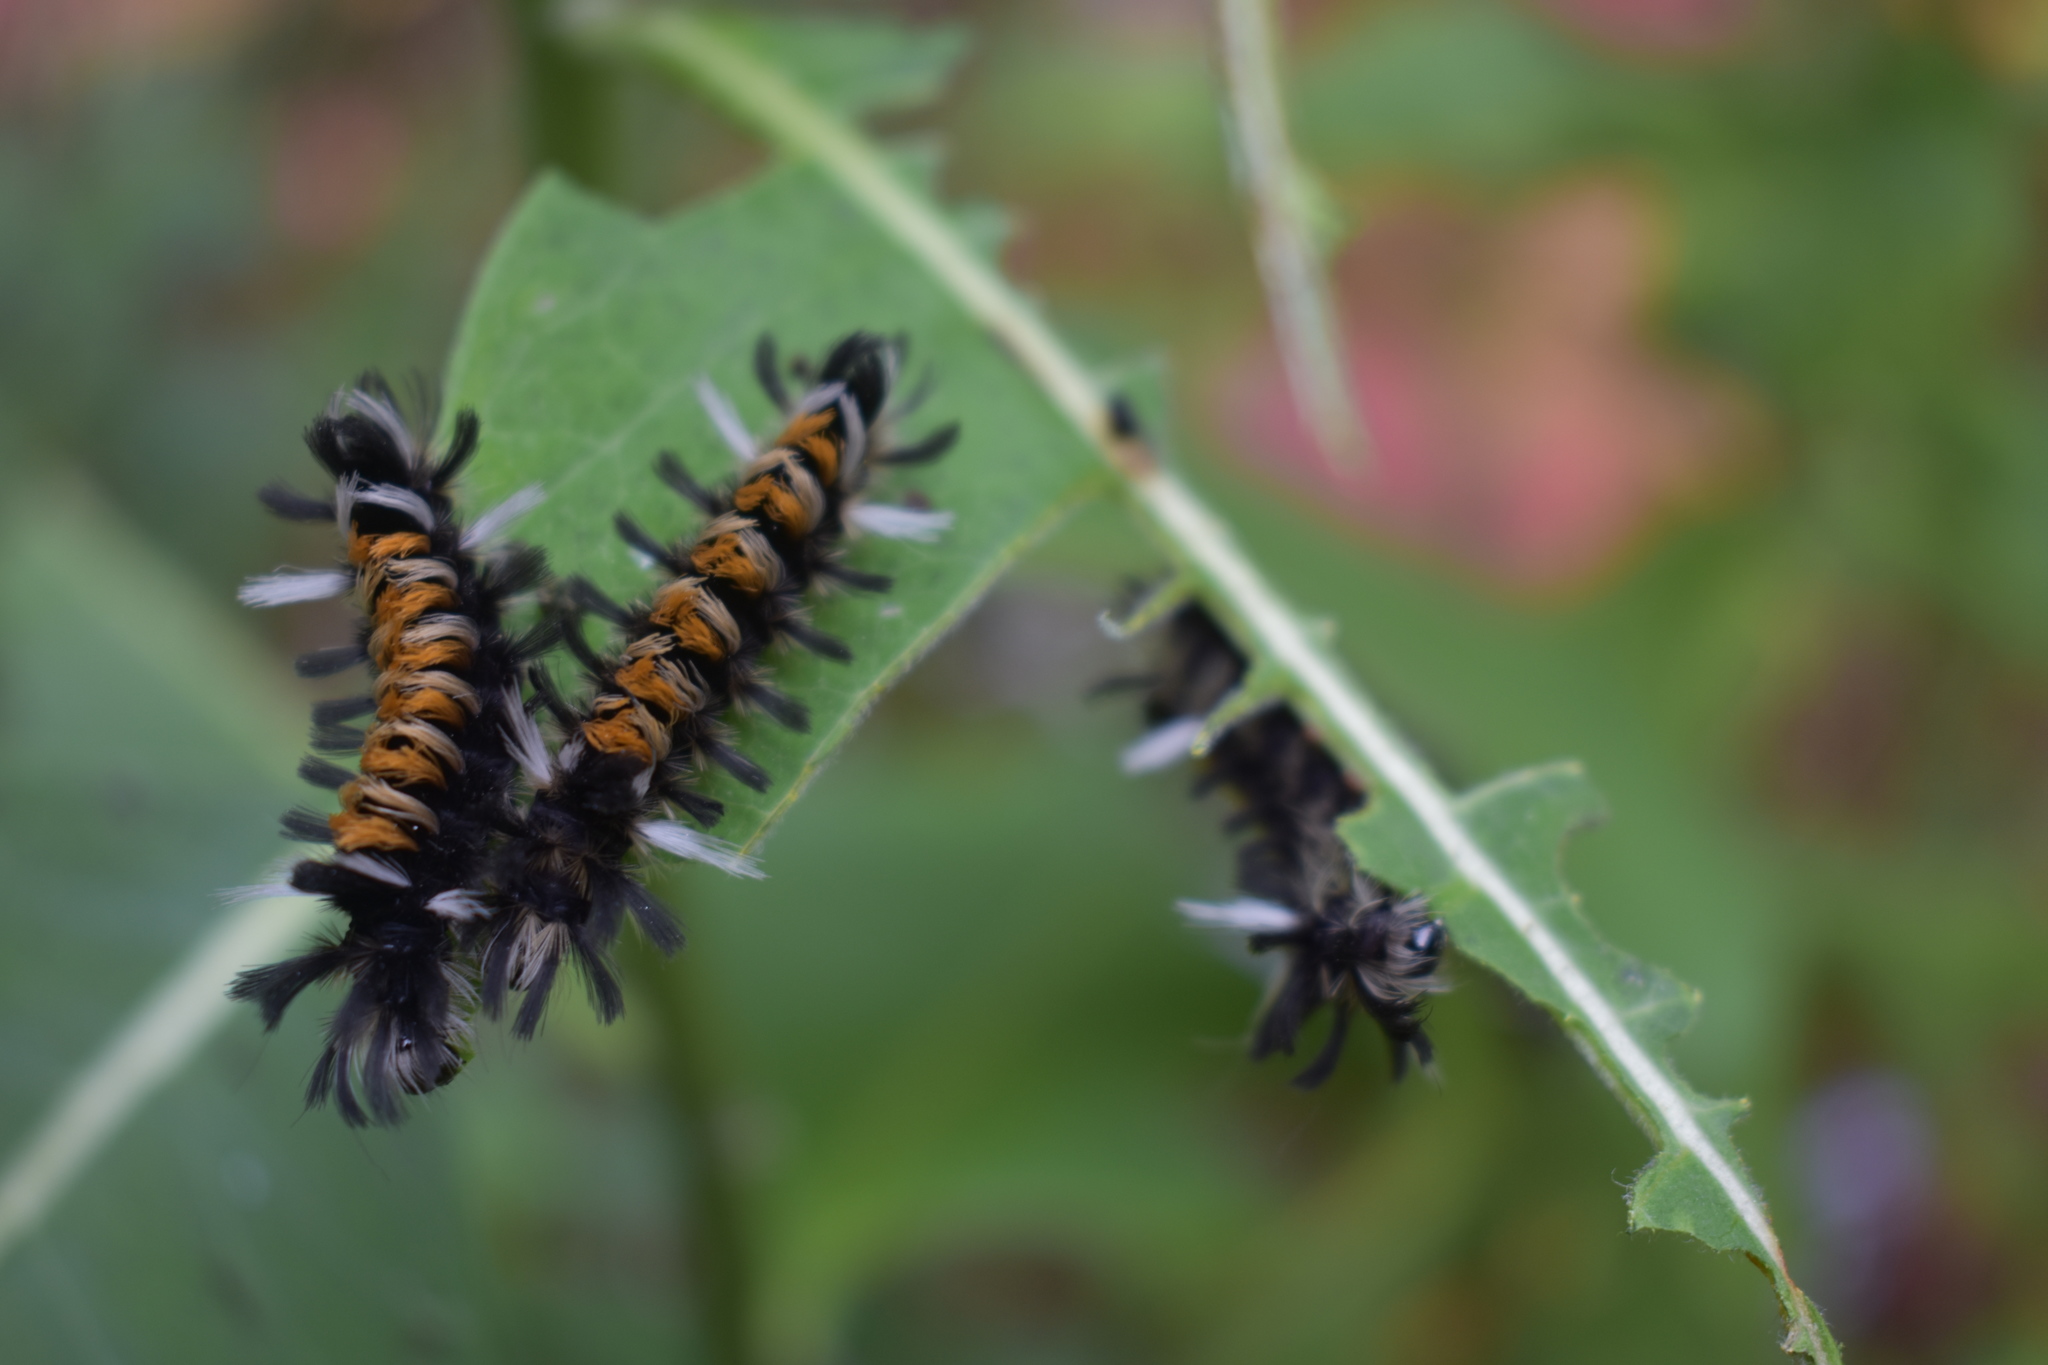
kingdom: Animalia
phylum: Arthropoda
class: Insecta
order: Lepidoptera
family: Erebidae
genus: Euchaetes
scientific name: Euchaetes egle
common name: Milkweed tussock moth
